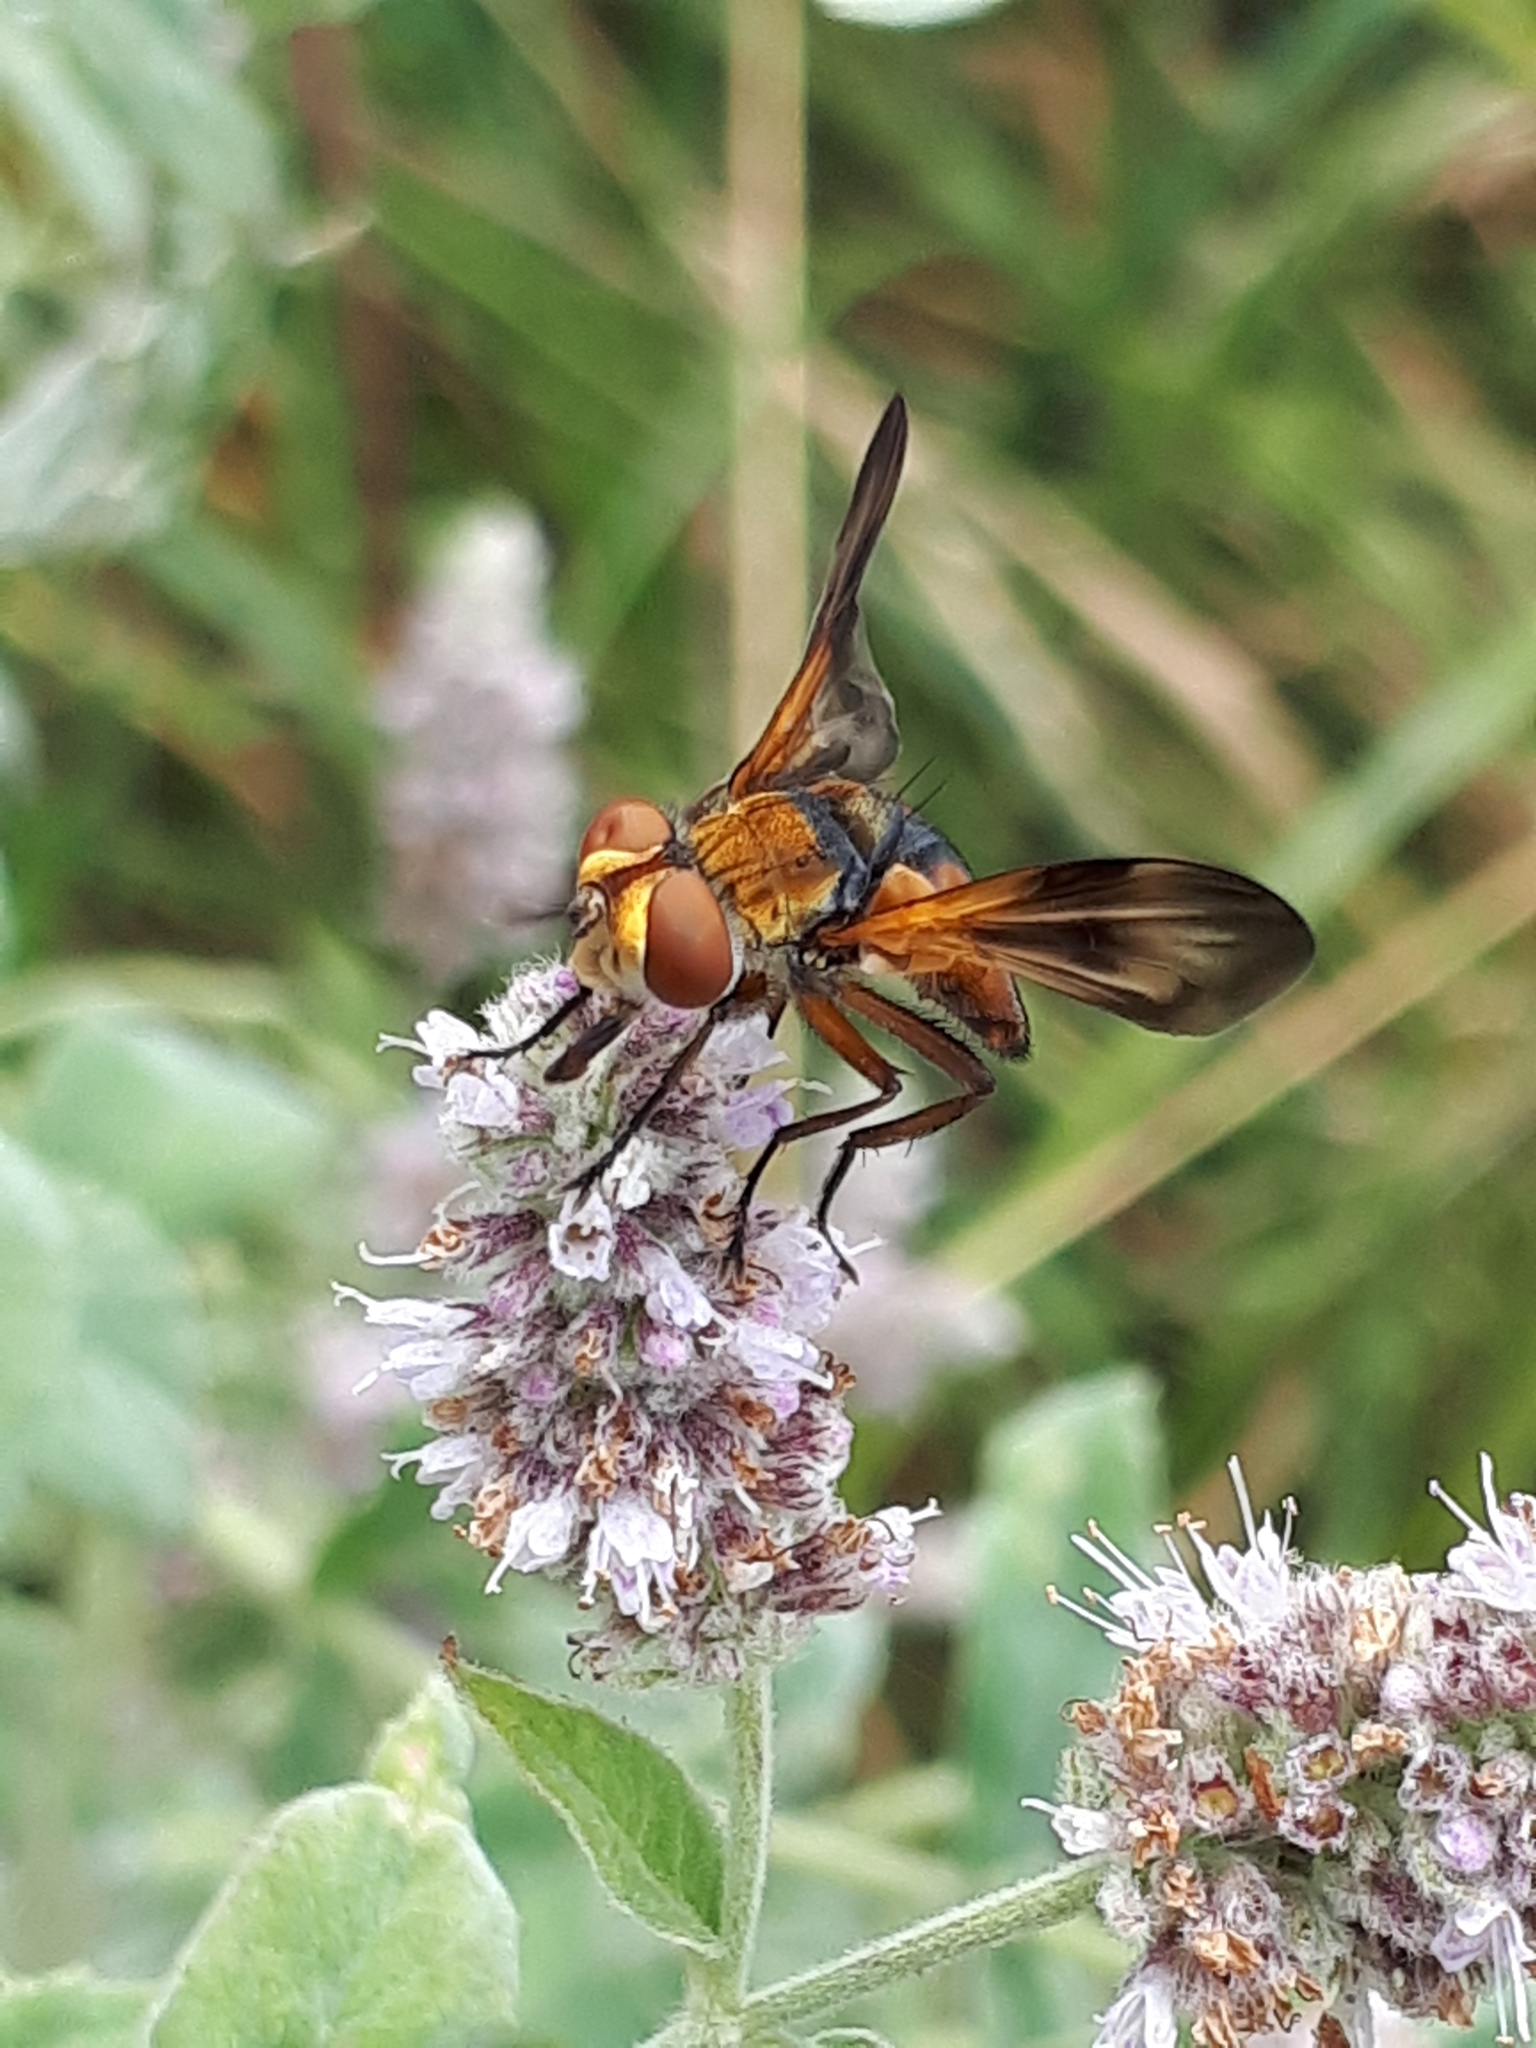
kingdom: Animalia
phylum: Arthropoda
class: Insecta
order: Diptera
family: Tachinidae
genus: Ectophasia
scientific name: Ectophasia crassipennis
